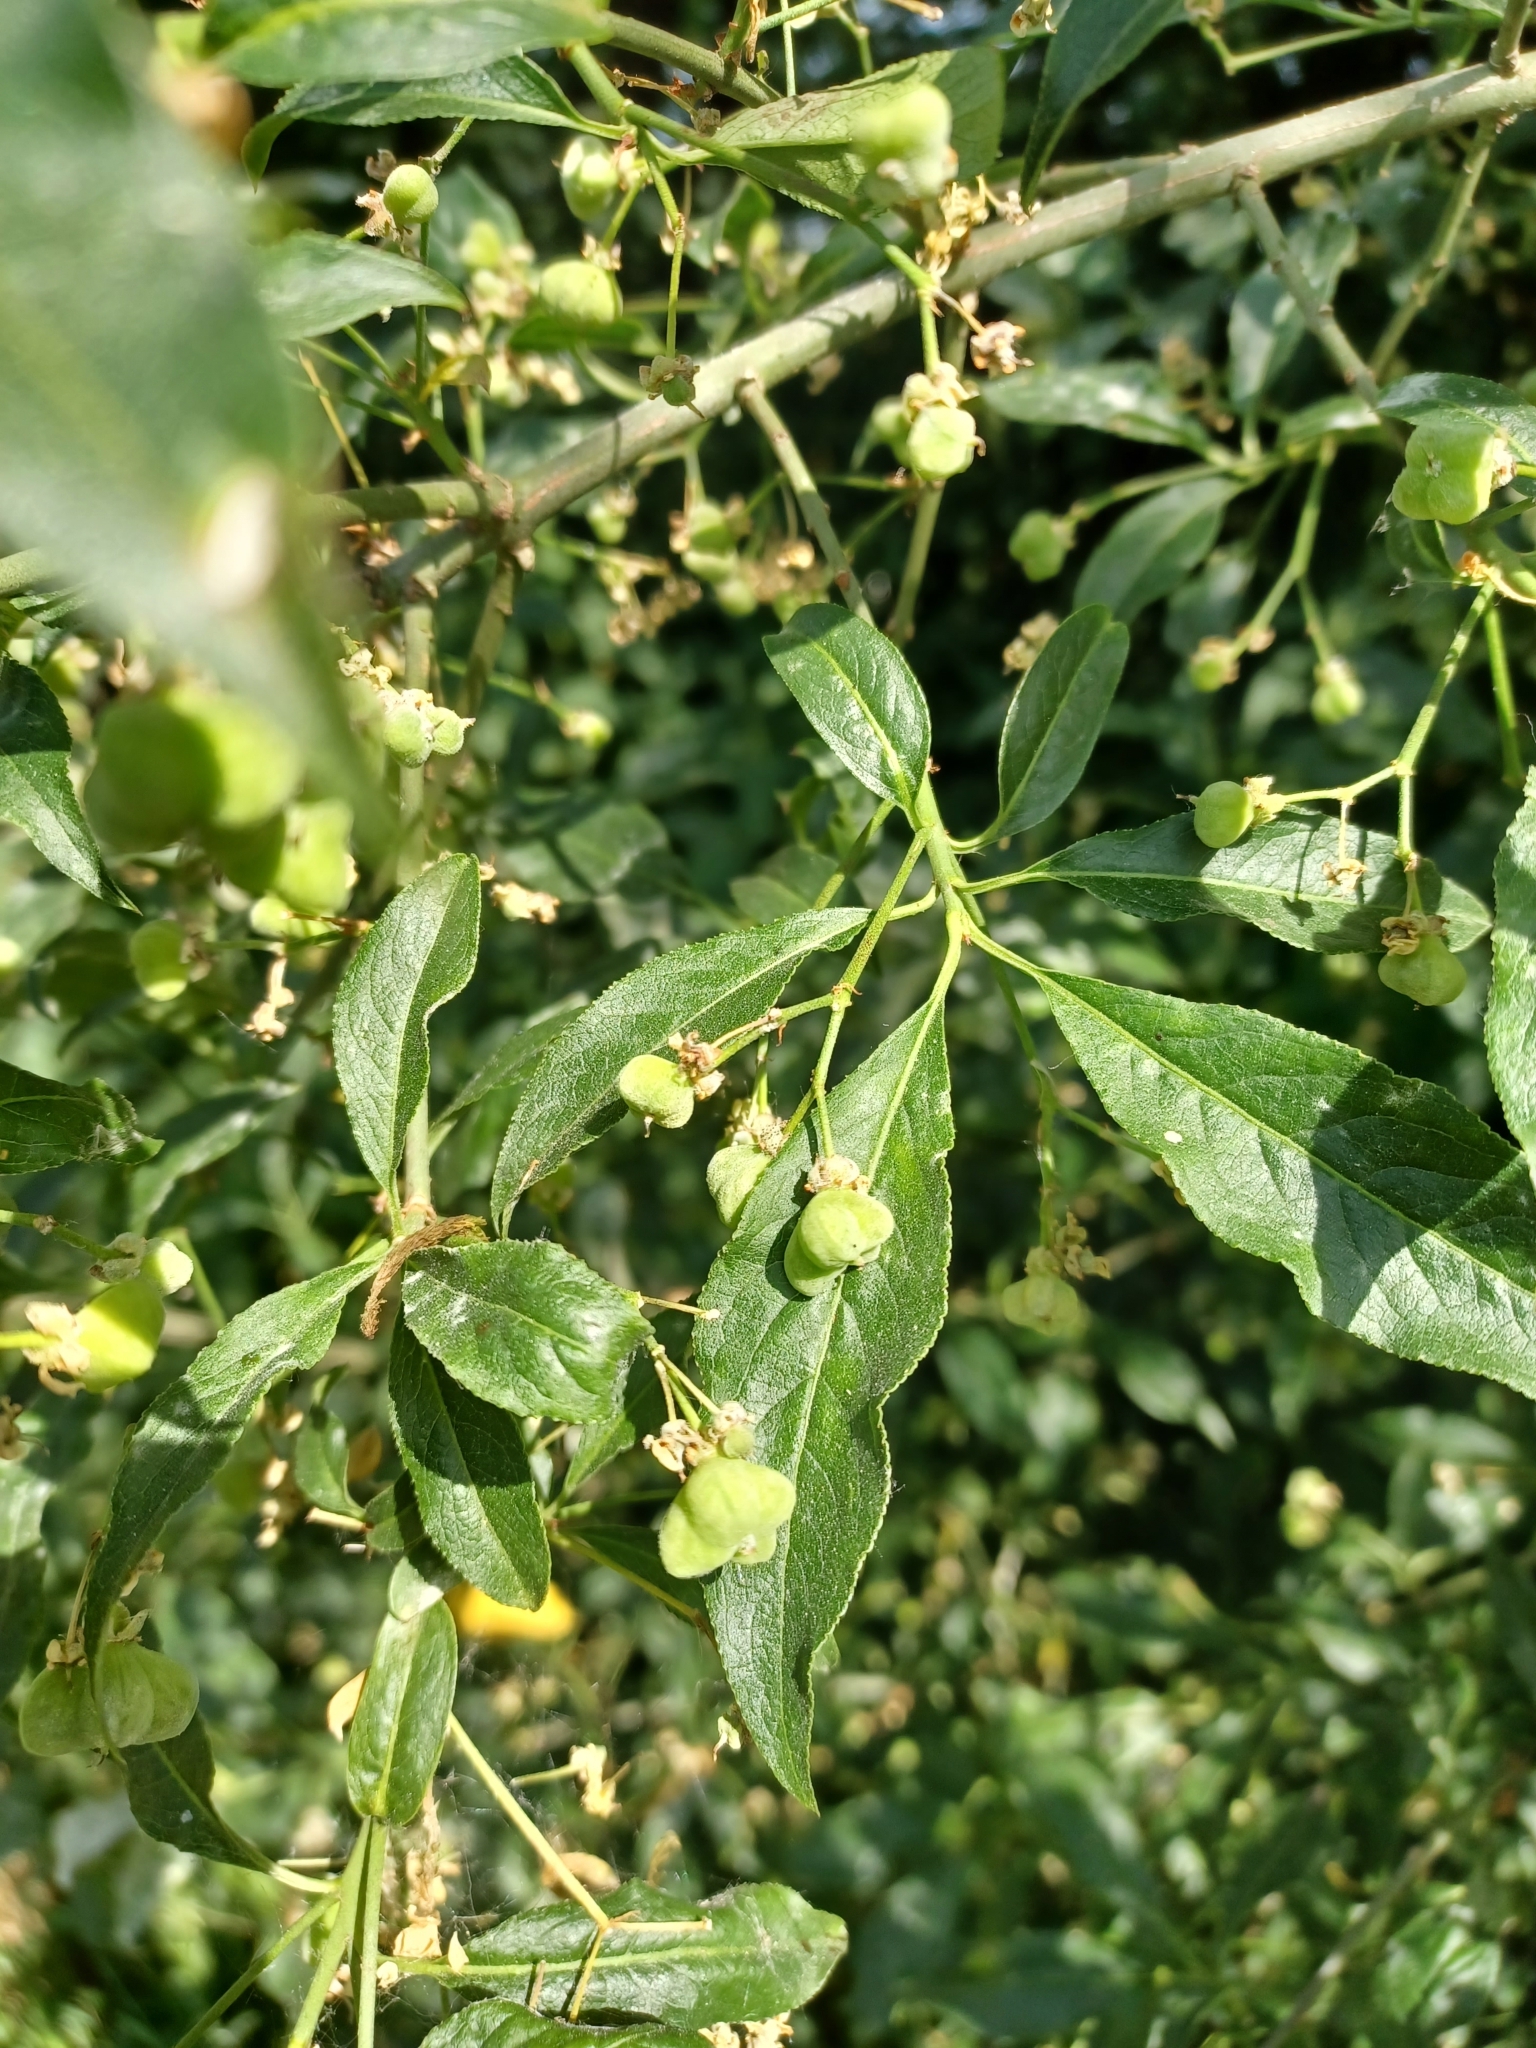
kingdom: Plantae
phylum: Tracheophyta
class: Magnoliopsida
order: Celastrales
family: Celastraceae
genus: Euonymus
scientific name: Euonymus europaeus
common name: Spindle
